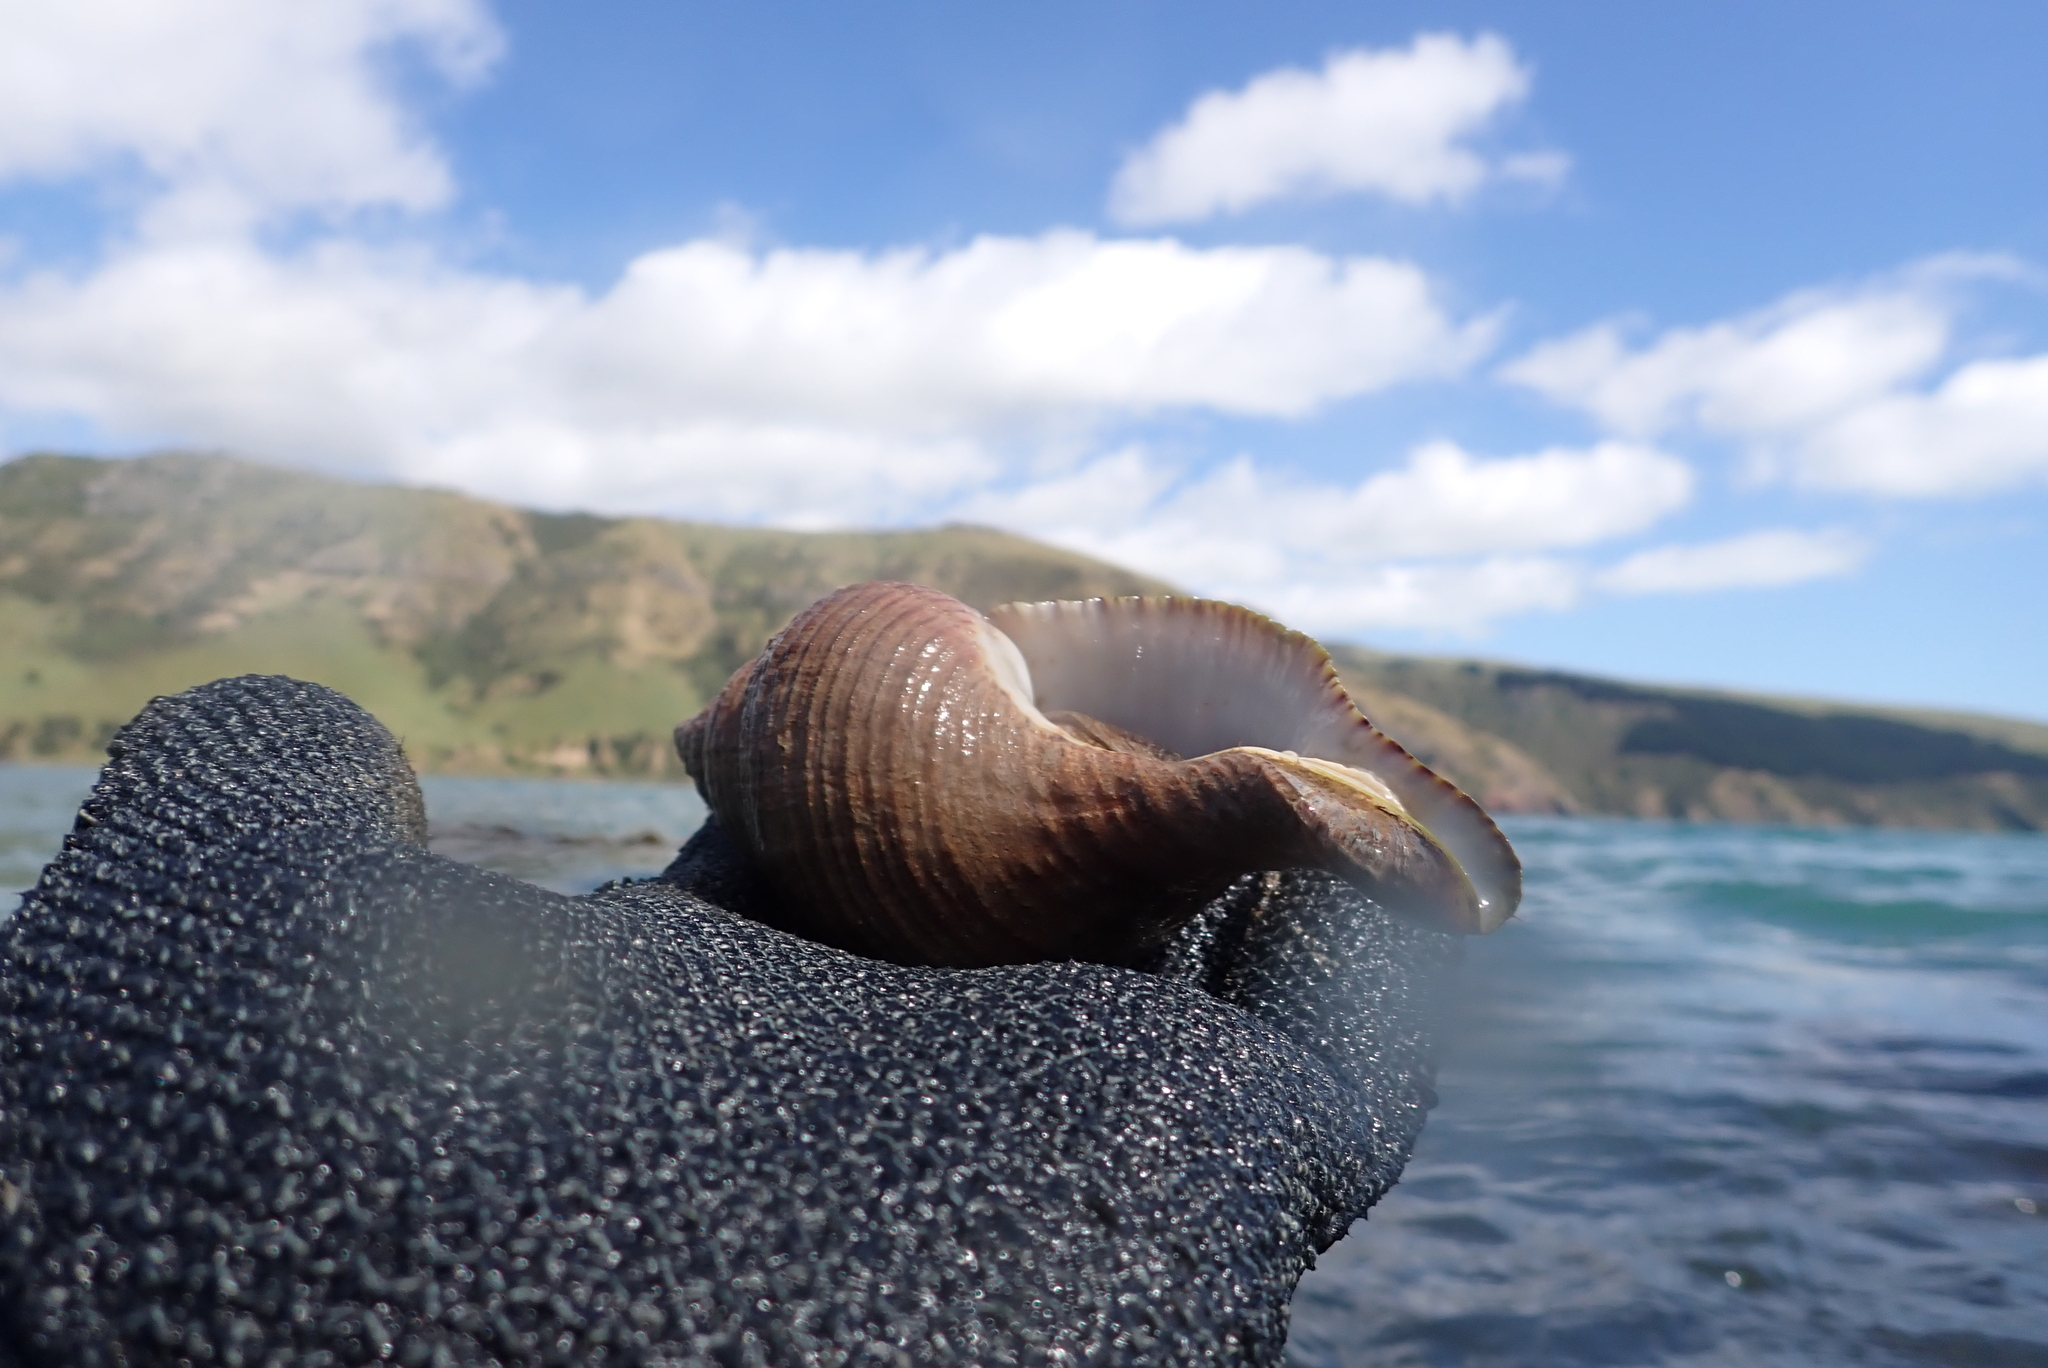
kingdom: Animalia
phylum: Mollusca
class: Gastropoda
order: Neogastropoda
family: Austrosiphonidae
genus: Penion
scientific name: Penion sulcatus
